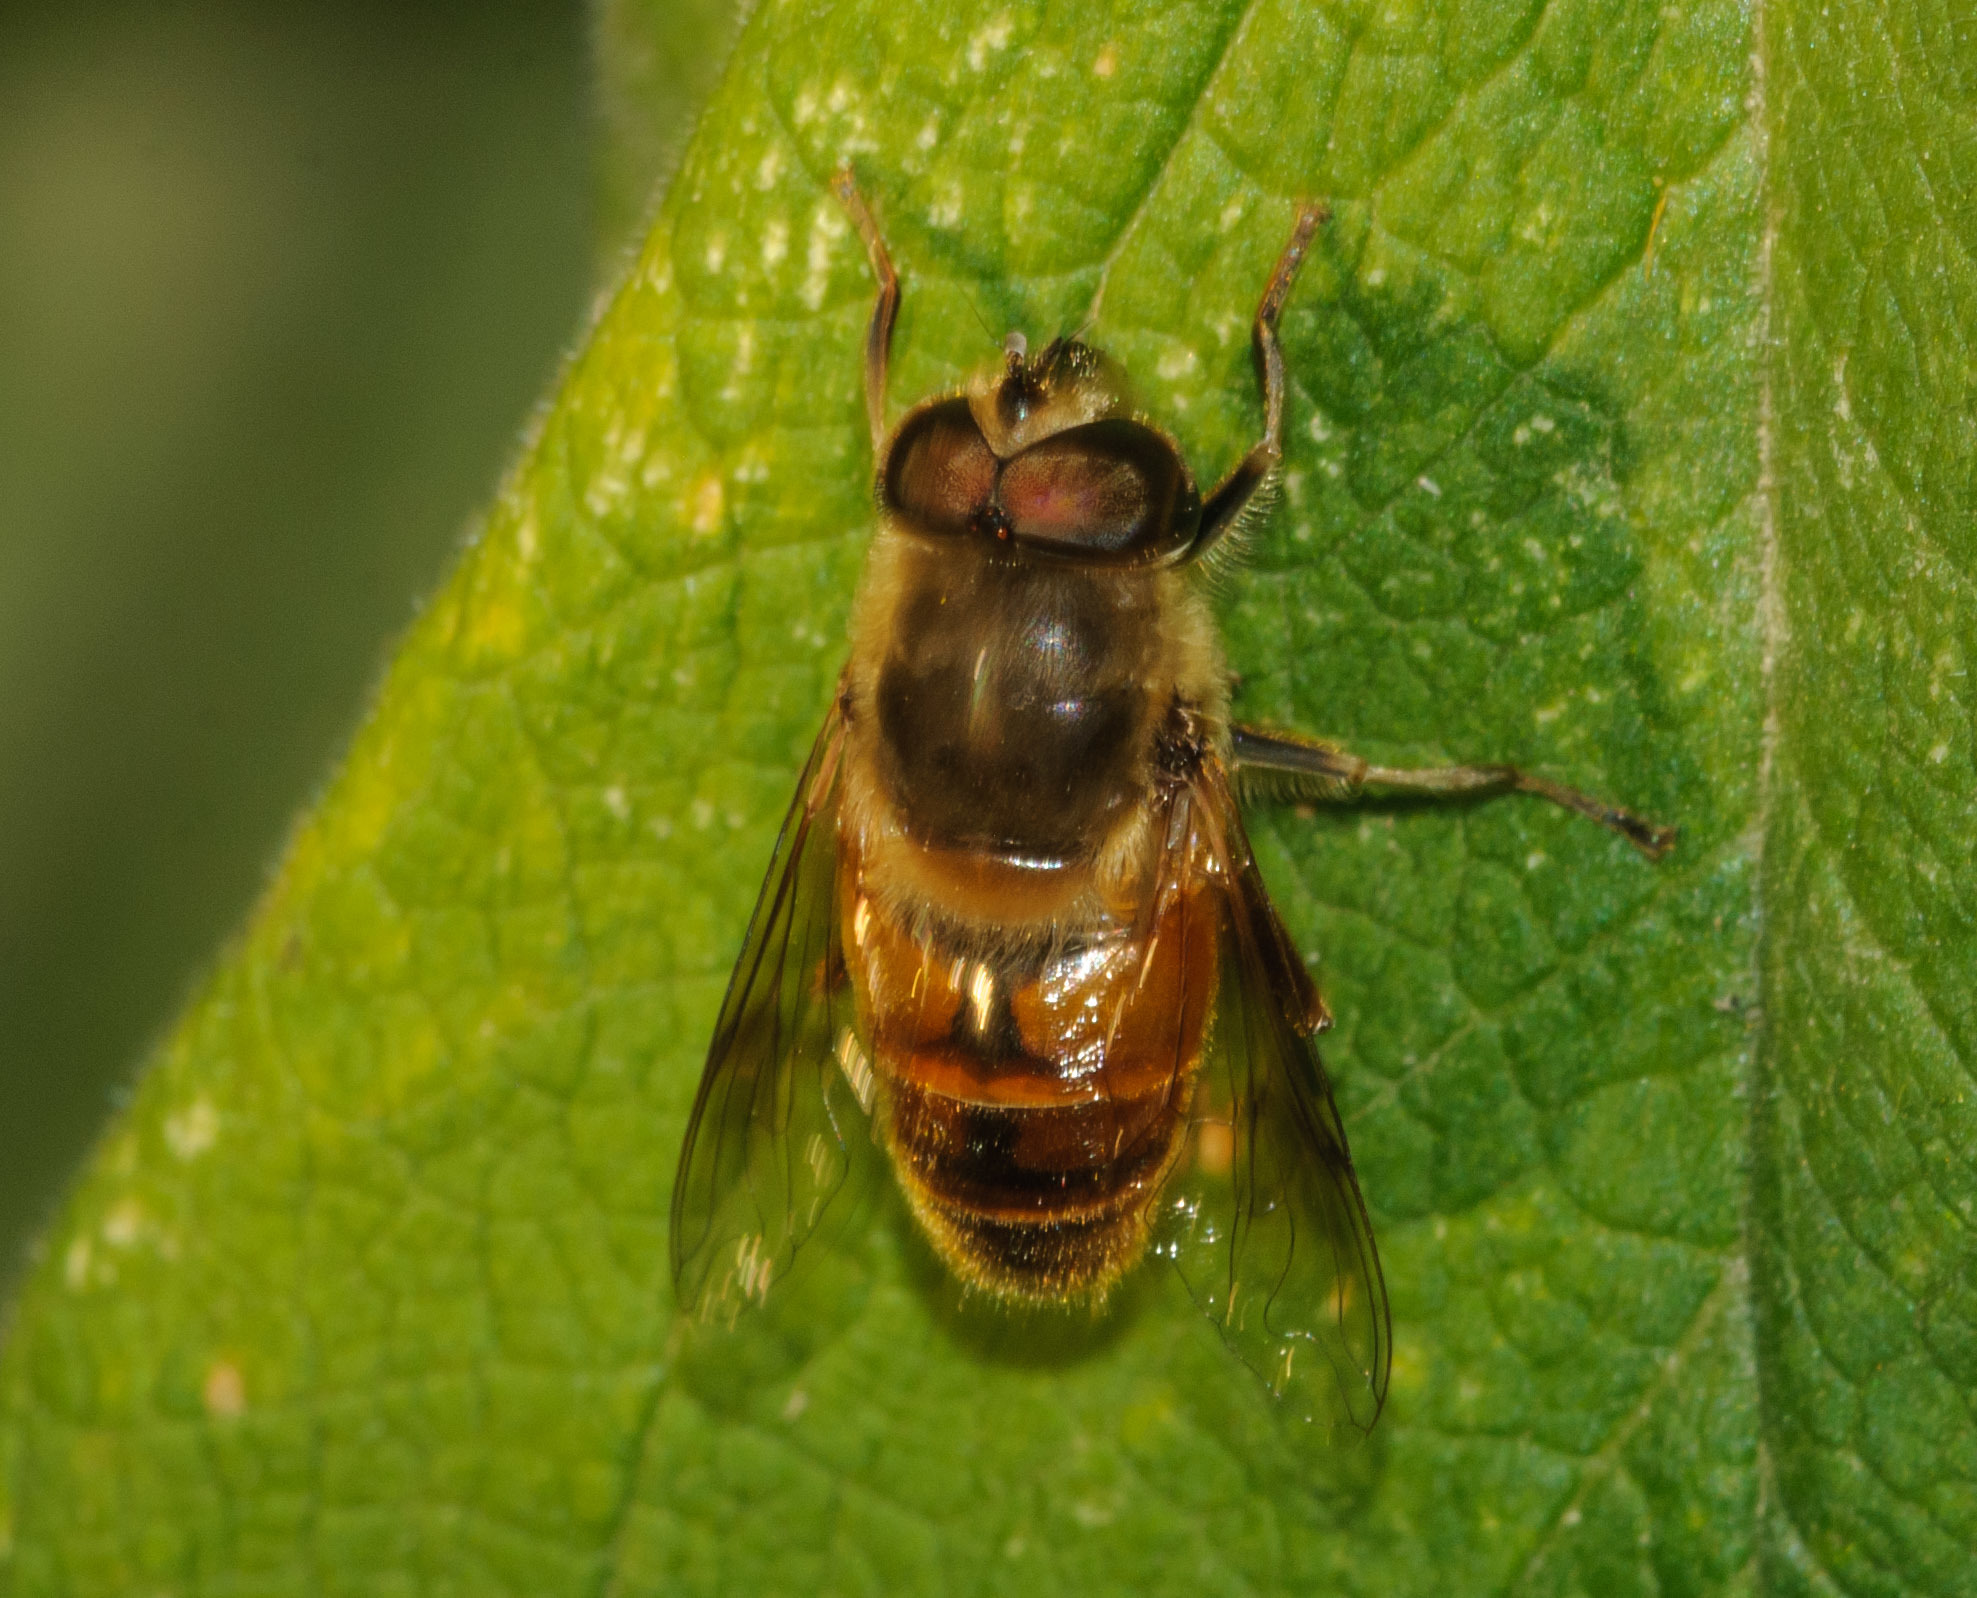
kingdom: Animalia
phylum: Arthropoda
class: Insecta
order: Diptera
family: Syrphidae
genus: Eristalis
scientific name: Eristalis tenax
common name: Drone fly
